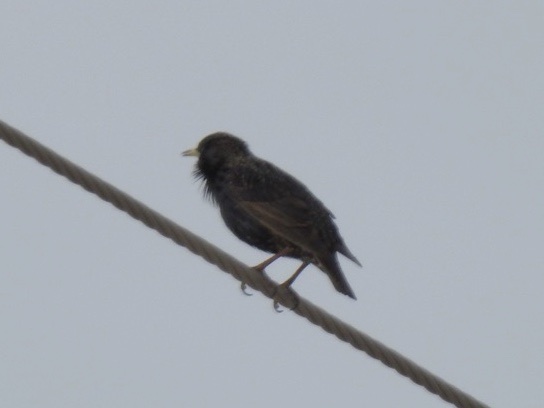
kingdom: Animalia
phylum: Chordata
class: Aves
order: Passeriformes
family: Sturnidae
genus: Sturnus
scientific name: Sturnus vulgaris
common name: Common starling
